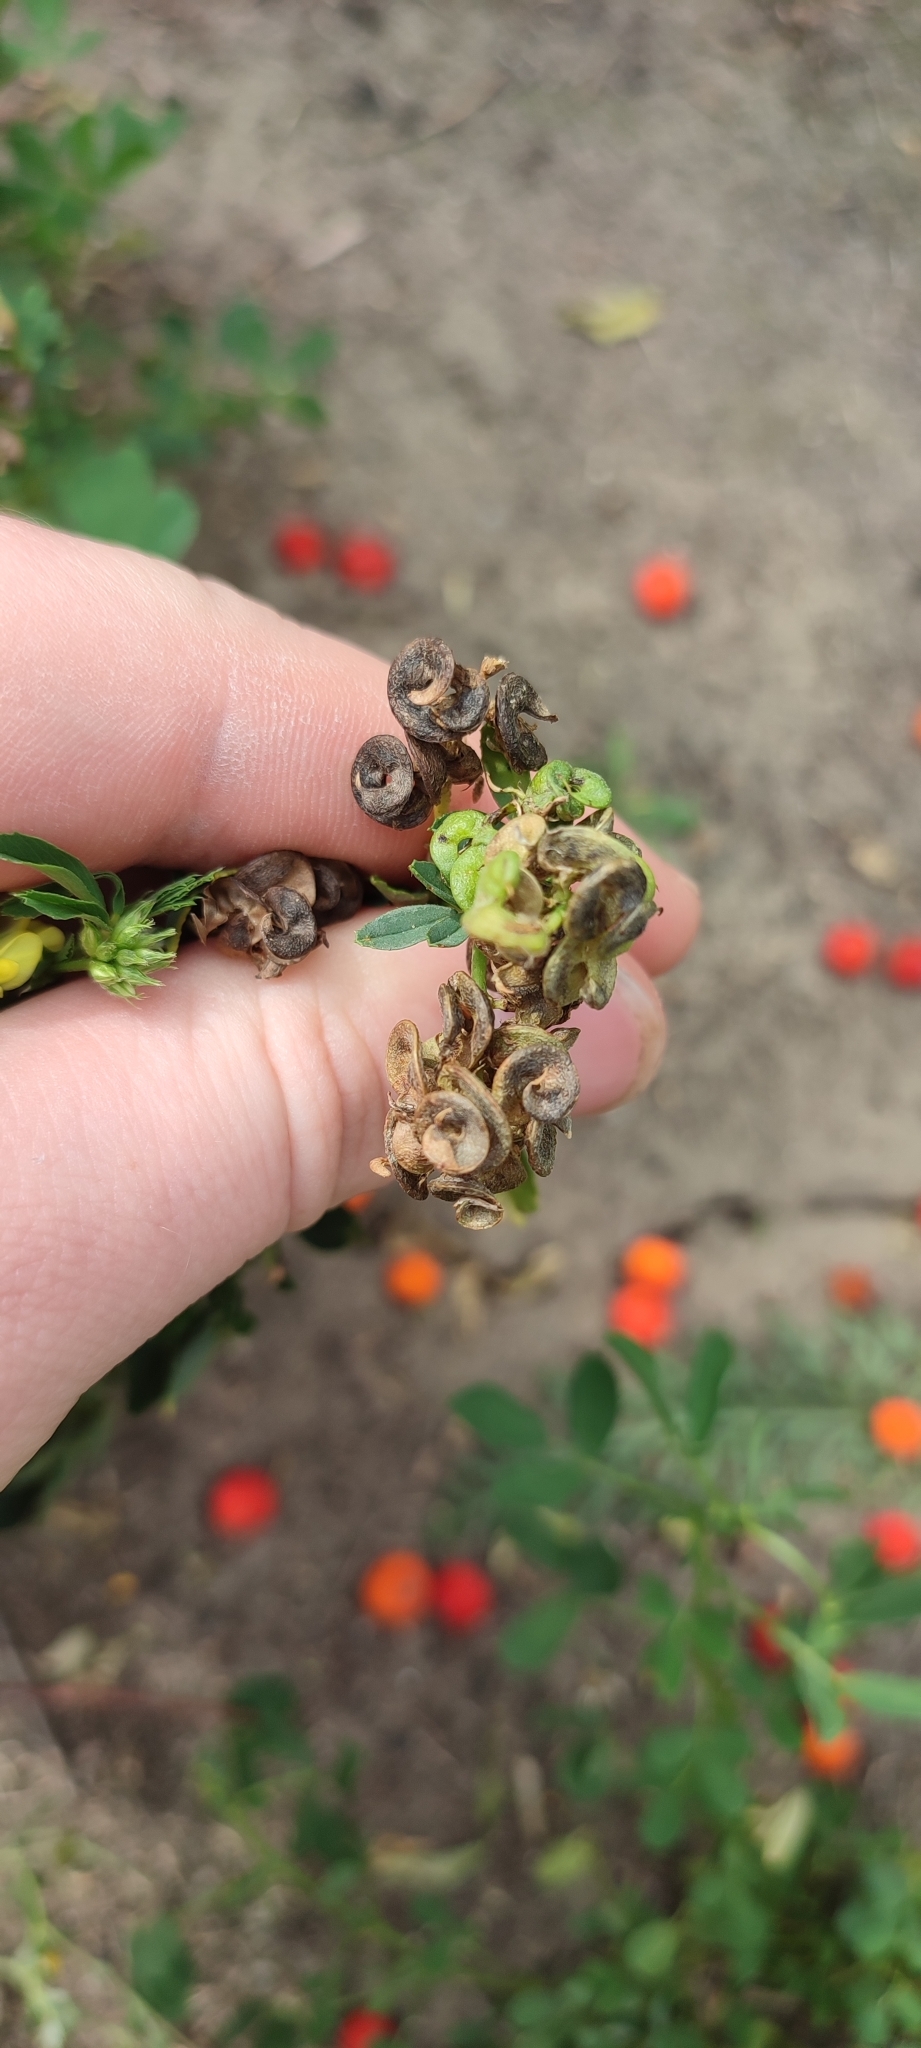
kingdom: Plantae
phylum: Tracheophyta
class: Magnoliopsida
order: Fabales
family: Fabaceae
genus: Medicago
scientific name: Medicago varia
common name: Sand lucerne
